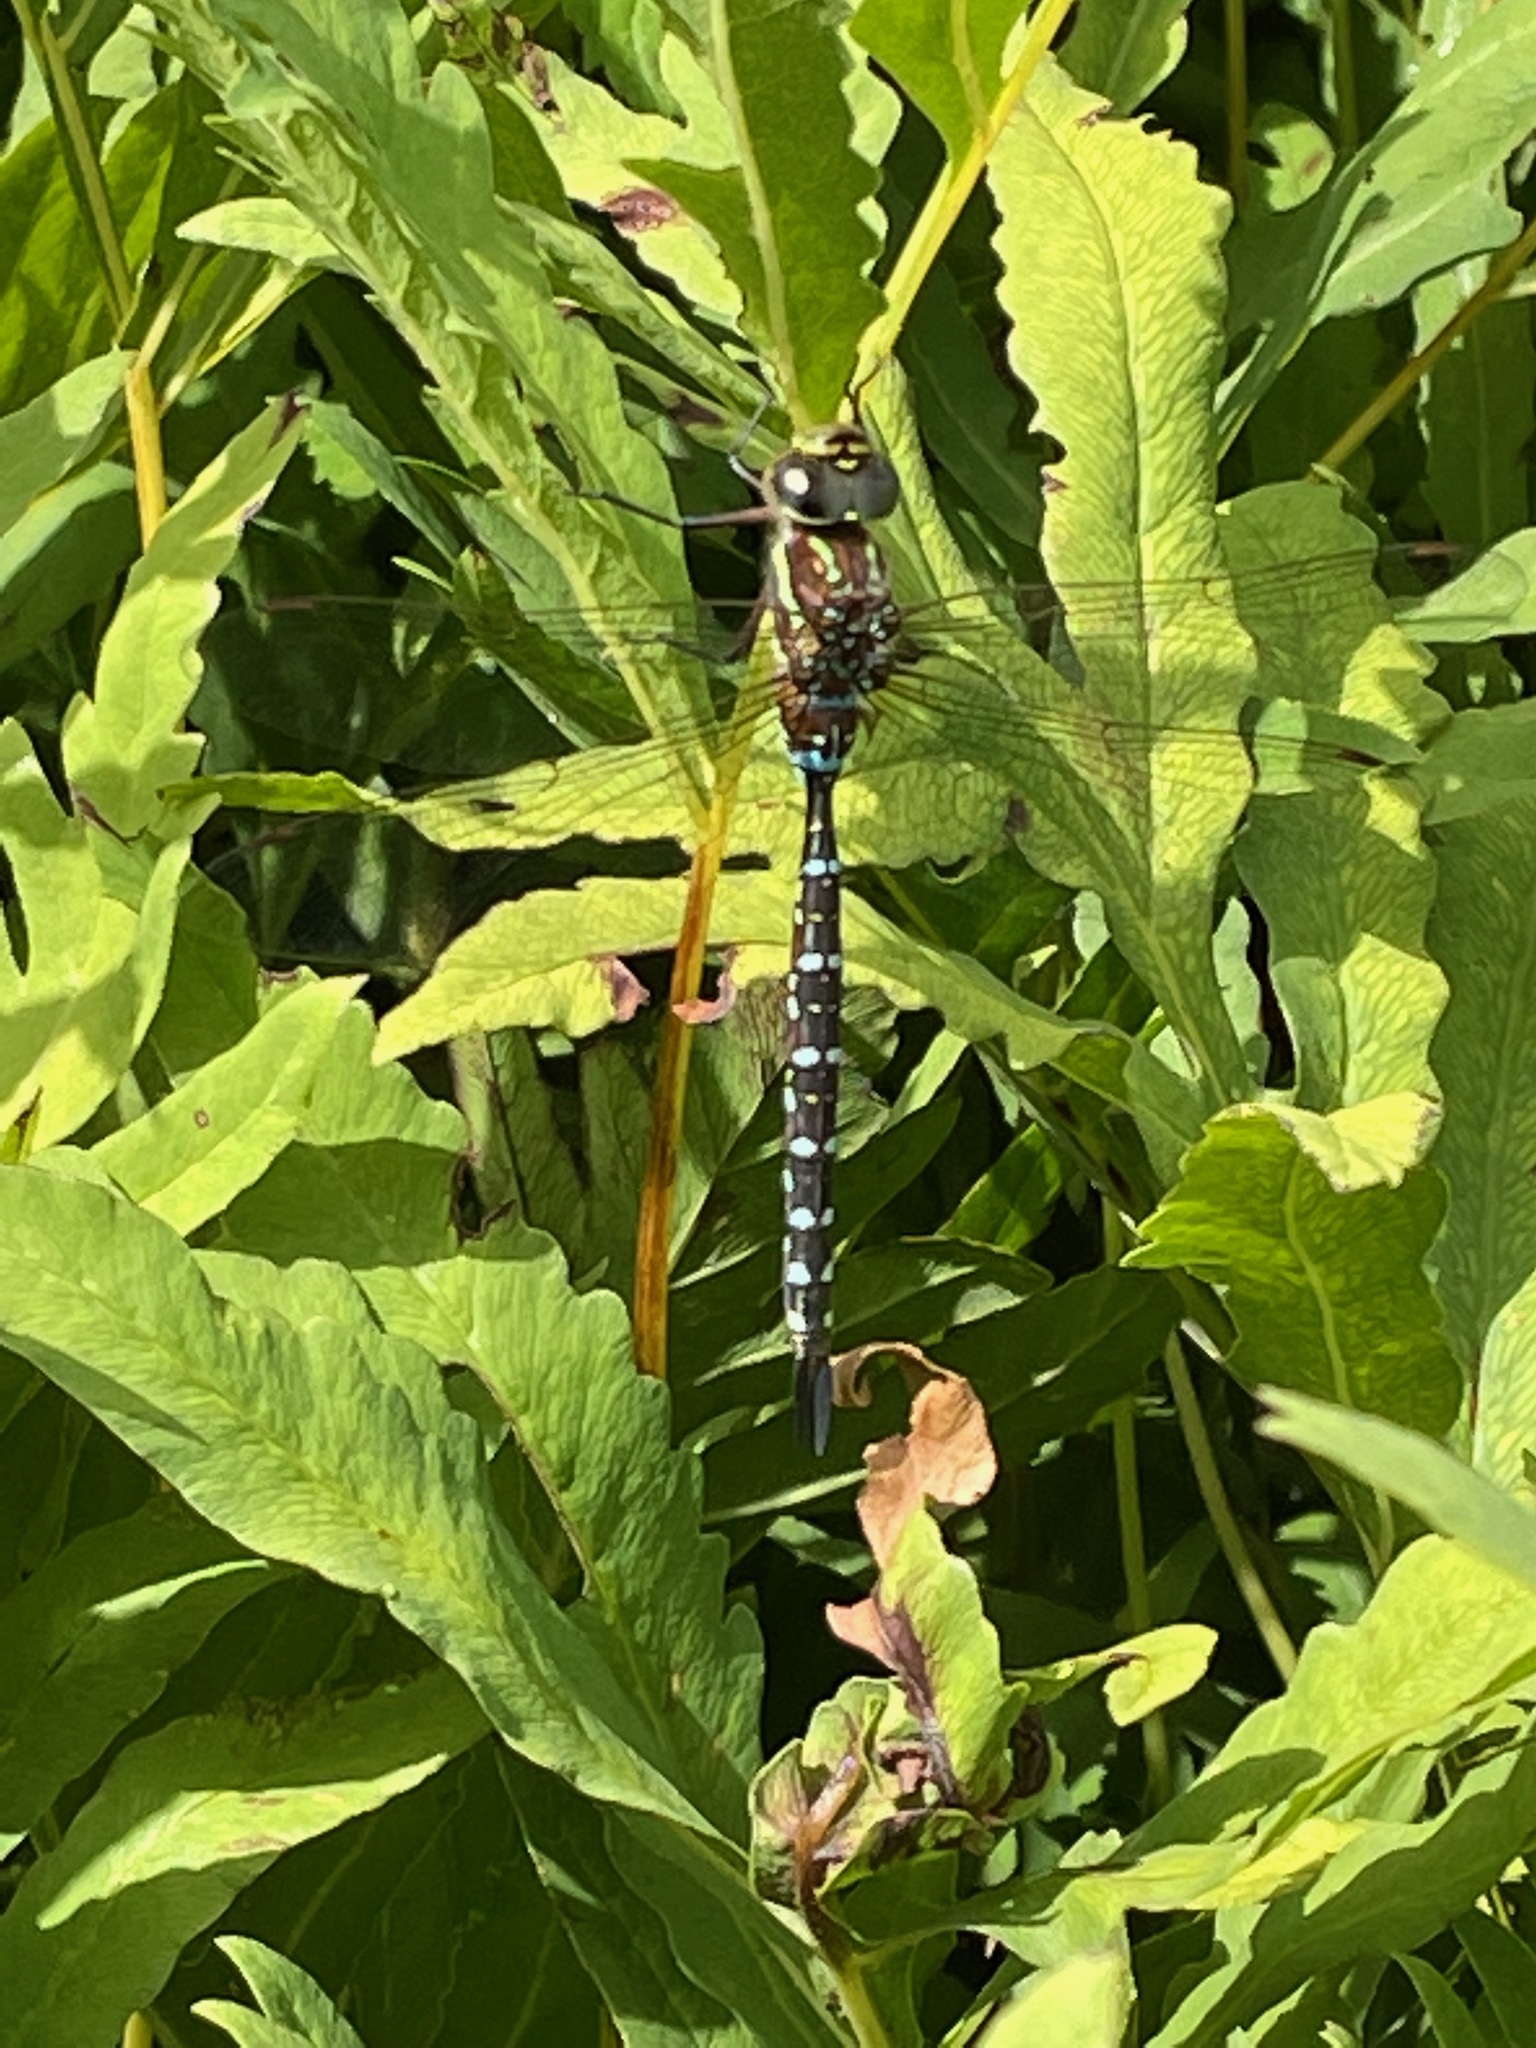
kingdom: Animalia
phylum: Arthropoda
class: Insecta
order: Odonata
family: Aeshnidae
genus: Aeshna
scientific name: Aeshna tuberculifera
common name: Aeschne à tubercules
